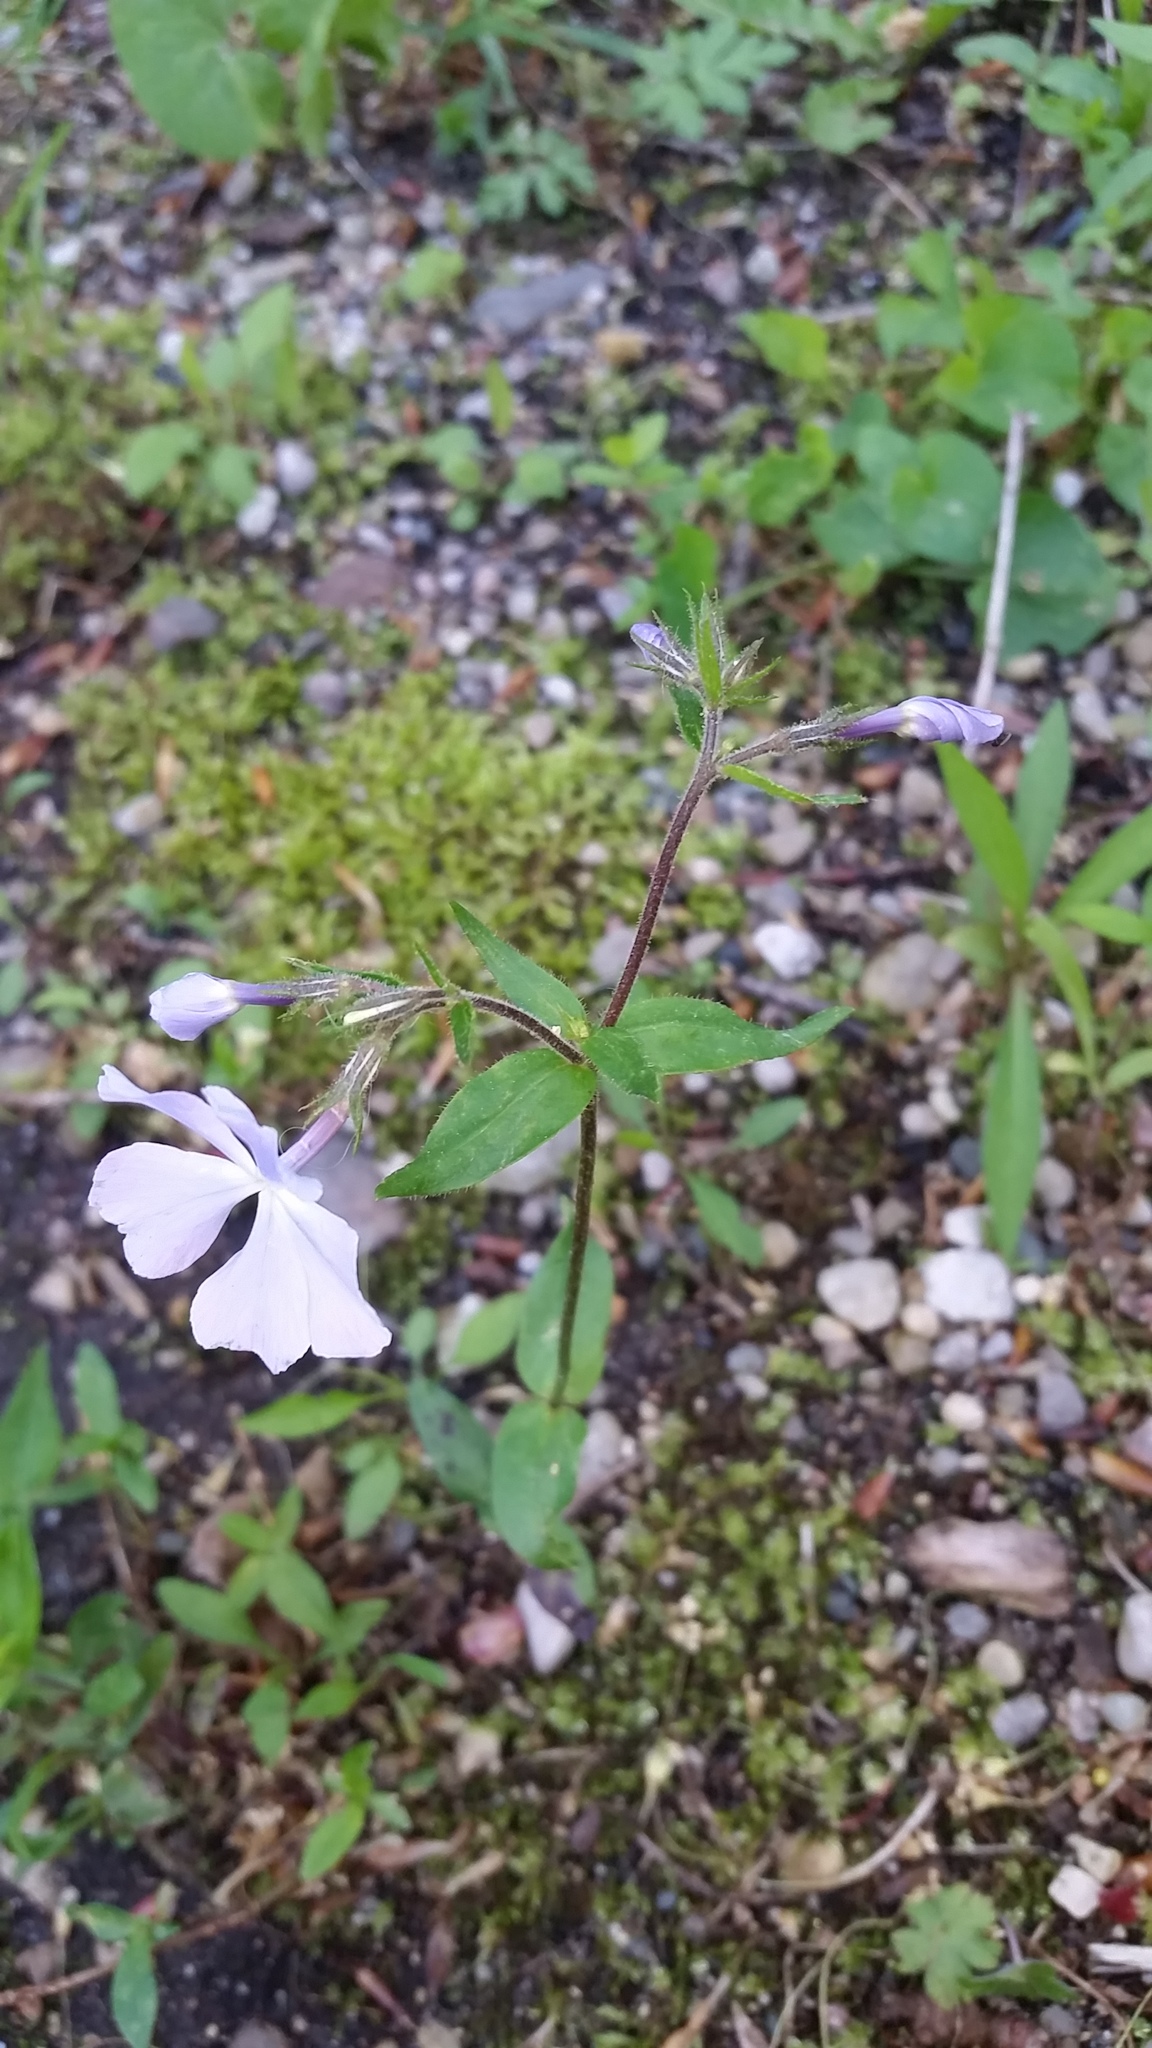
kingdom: Plantae
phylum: Tracheophyta
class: Magnoliopsida
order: Ericales
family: Polemoniaceae
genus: Phlox
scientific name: Phlox divaricata
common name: Blue phlox
